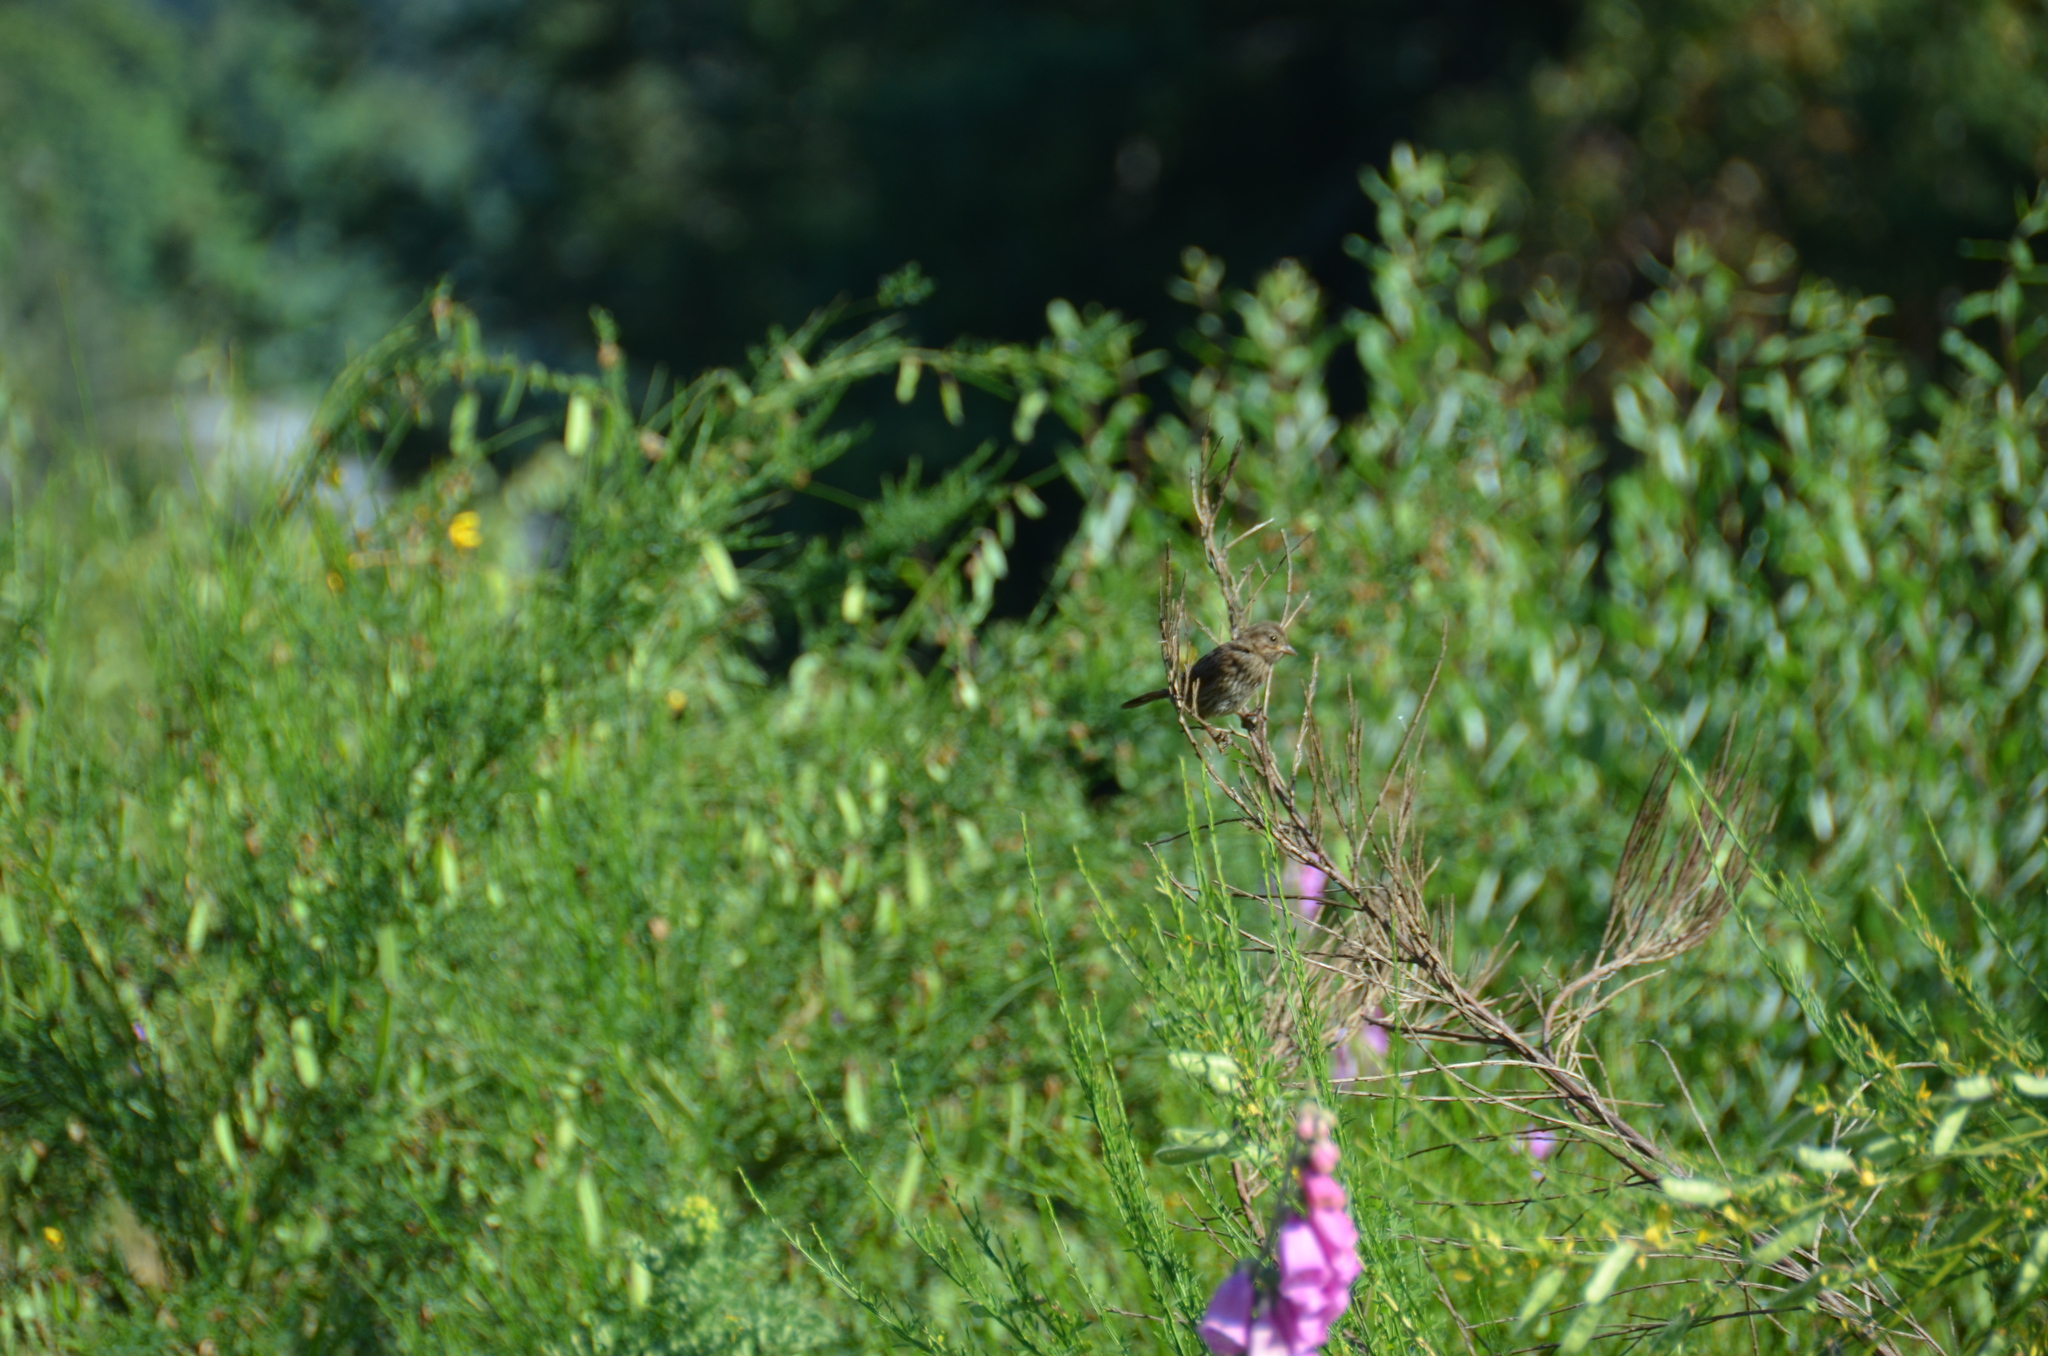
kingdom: Animalia
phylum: Chordata
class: Aves
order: Passeriformes
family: Passerellidae
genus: Melospiza
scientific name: Melospiza melodia
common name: Song sparrow
